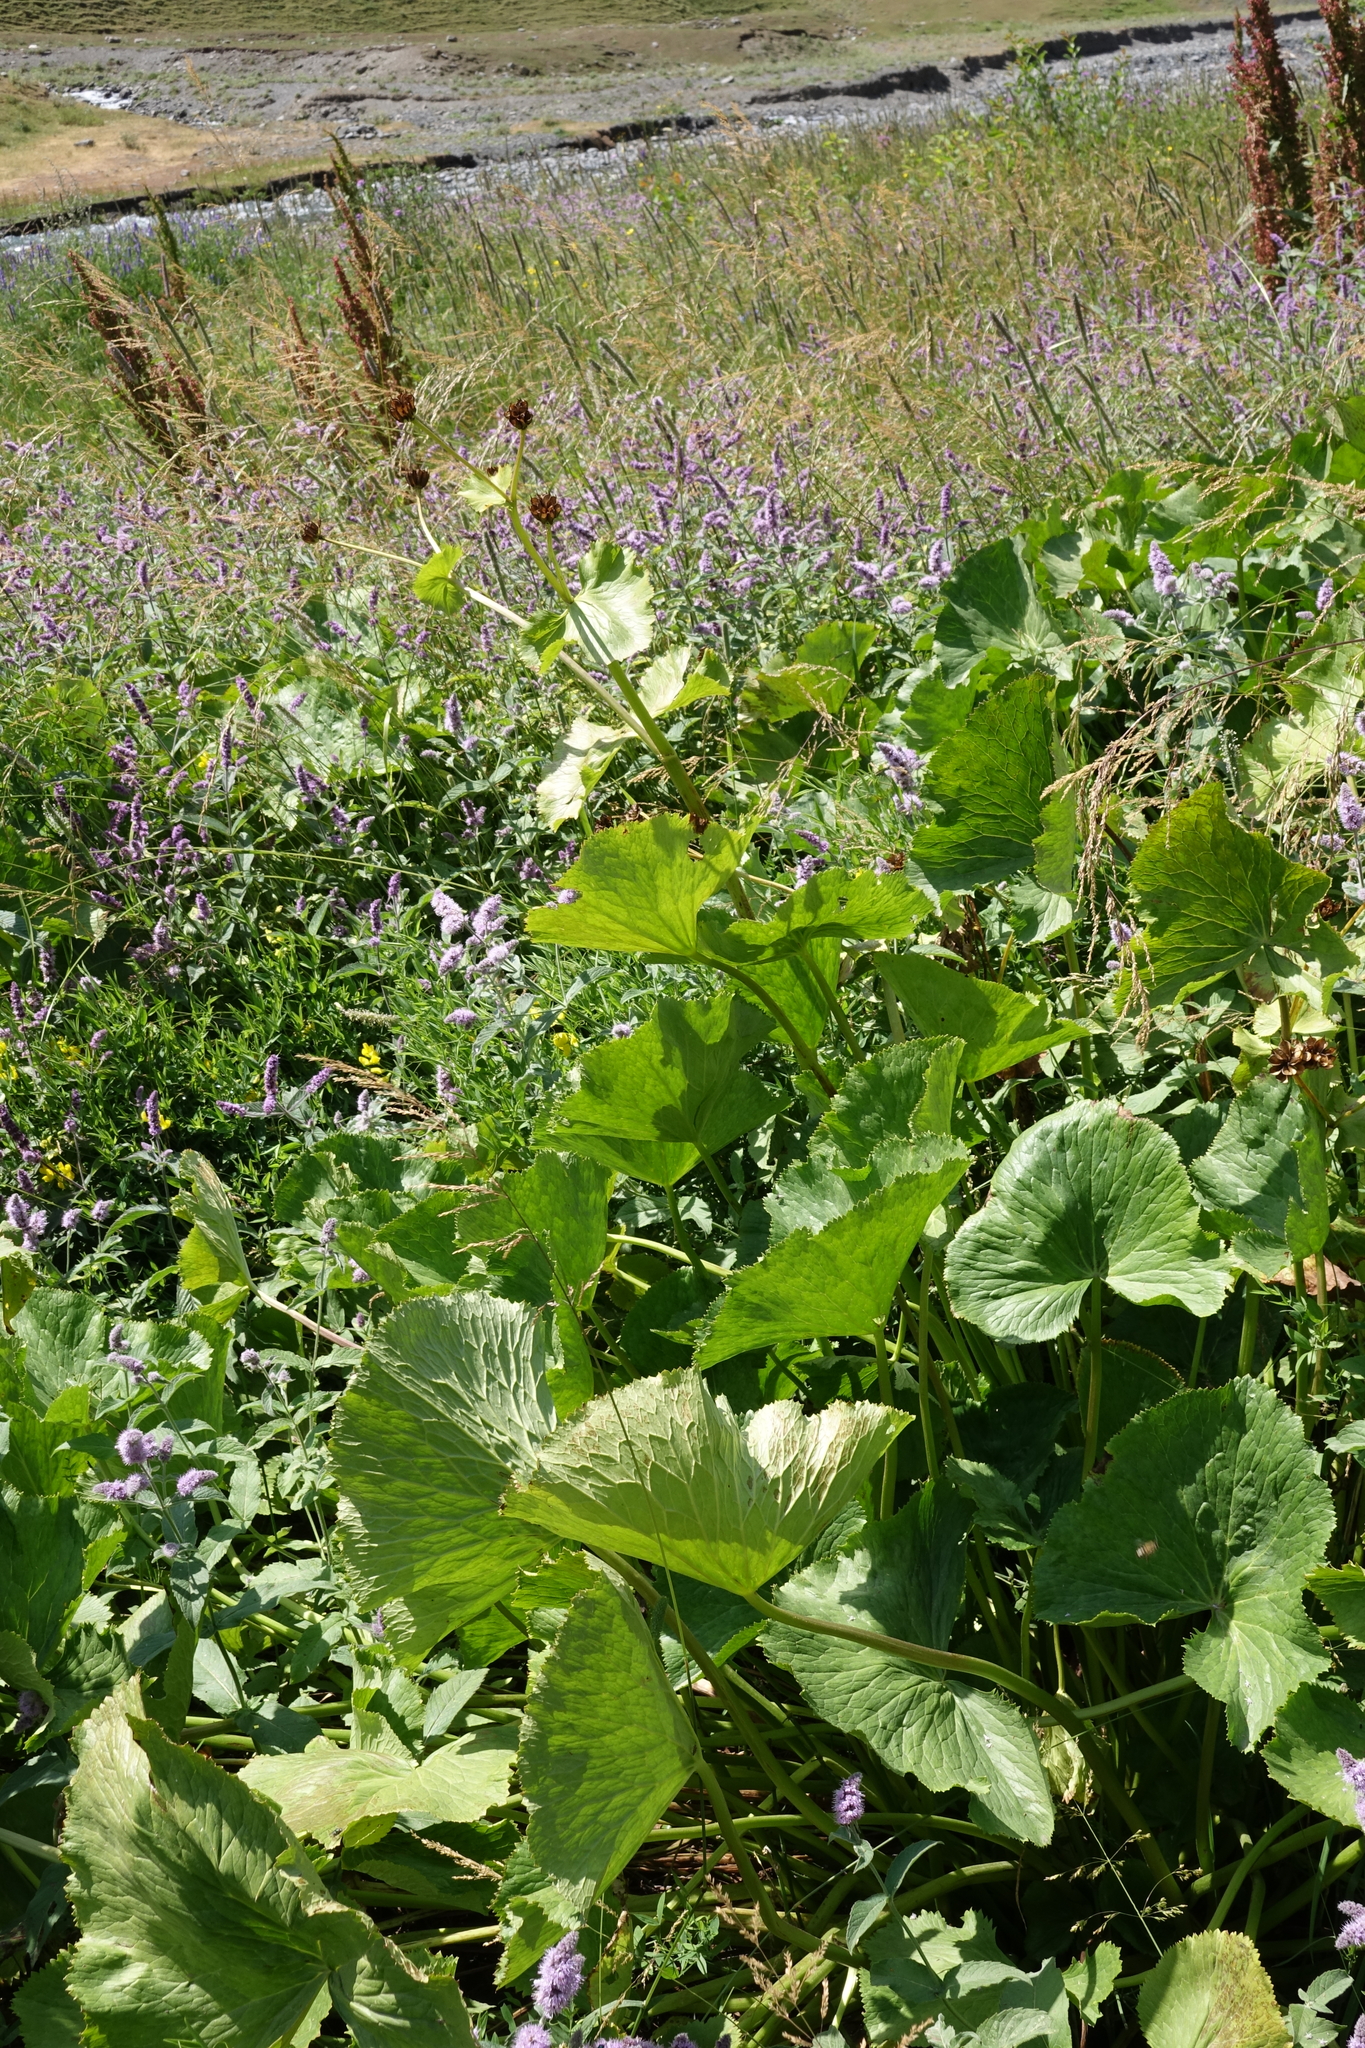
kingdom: Plantae
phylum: Tracheophyta
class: Magnoliopsida
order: Ranunculales
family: Ranunculaceae
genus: Caltha
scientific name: Caltha palustris
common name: Marsh marigold
